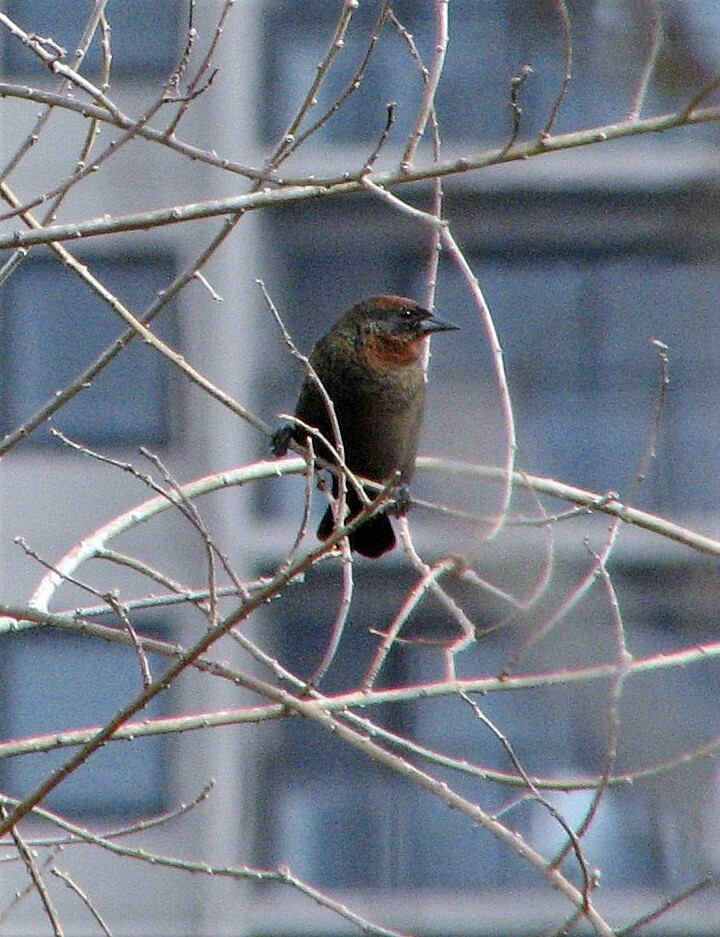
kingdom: Animalia
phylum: Chordata
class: Aves
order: Passeriformes
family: Icteridae
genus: Chrysomus
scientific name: Chrysomus ruficapillus
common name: Chestnut-capped blackbird
